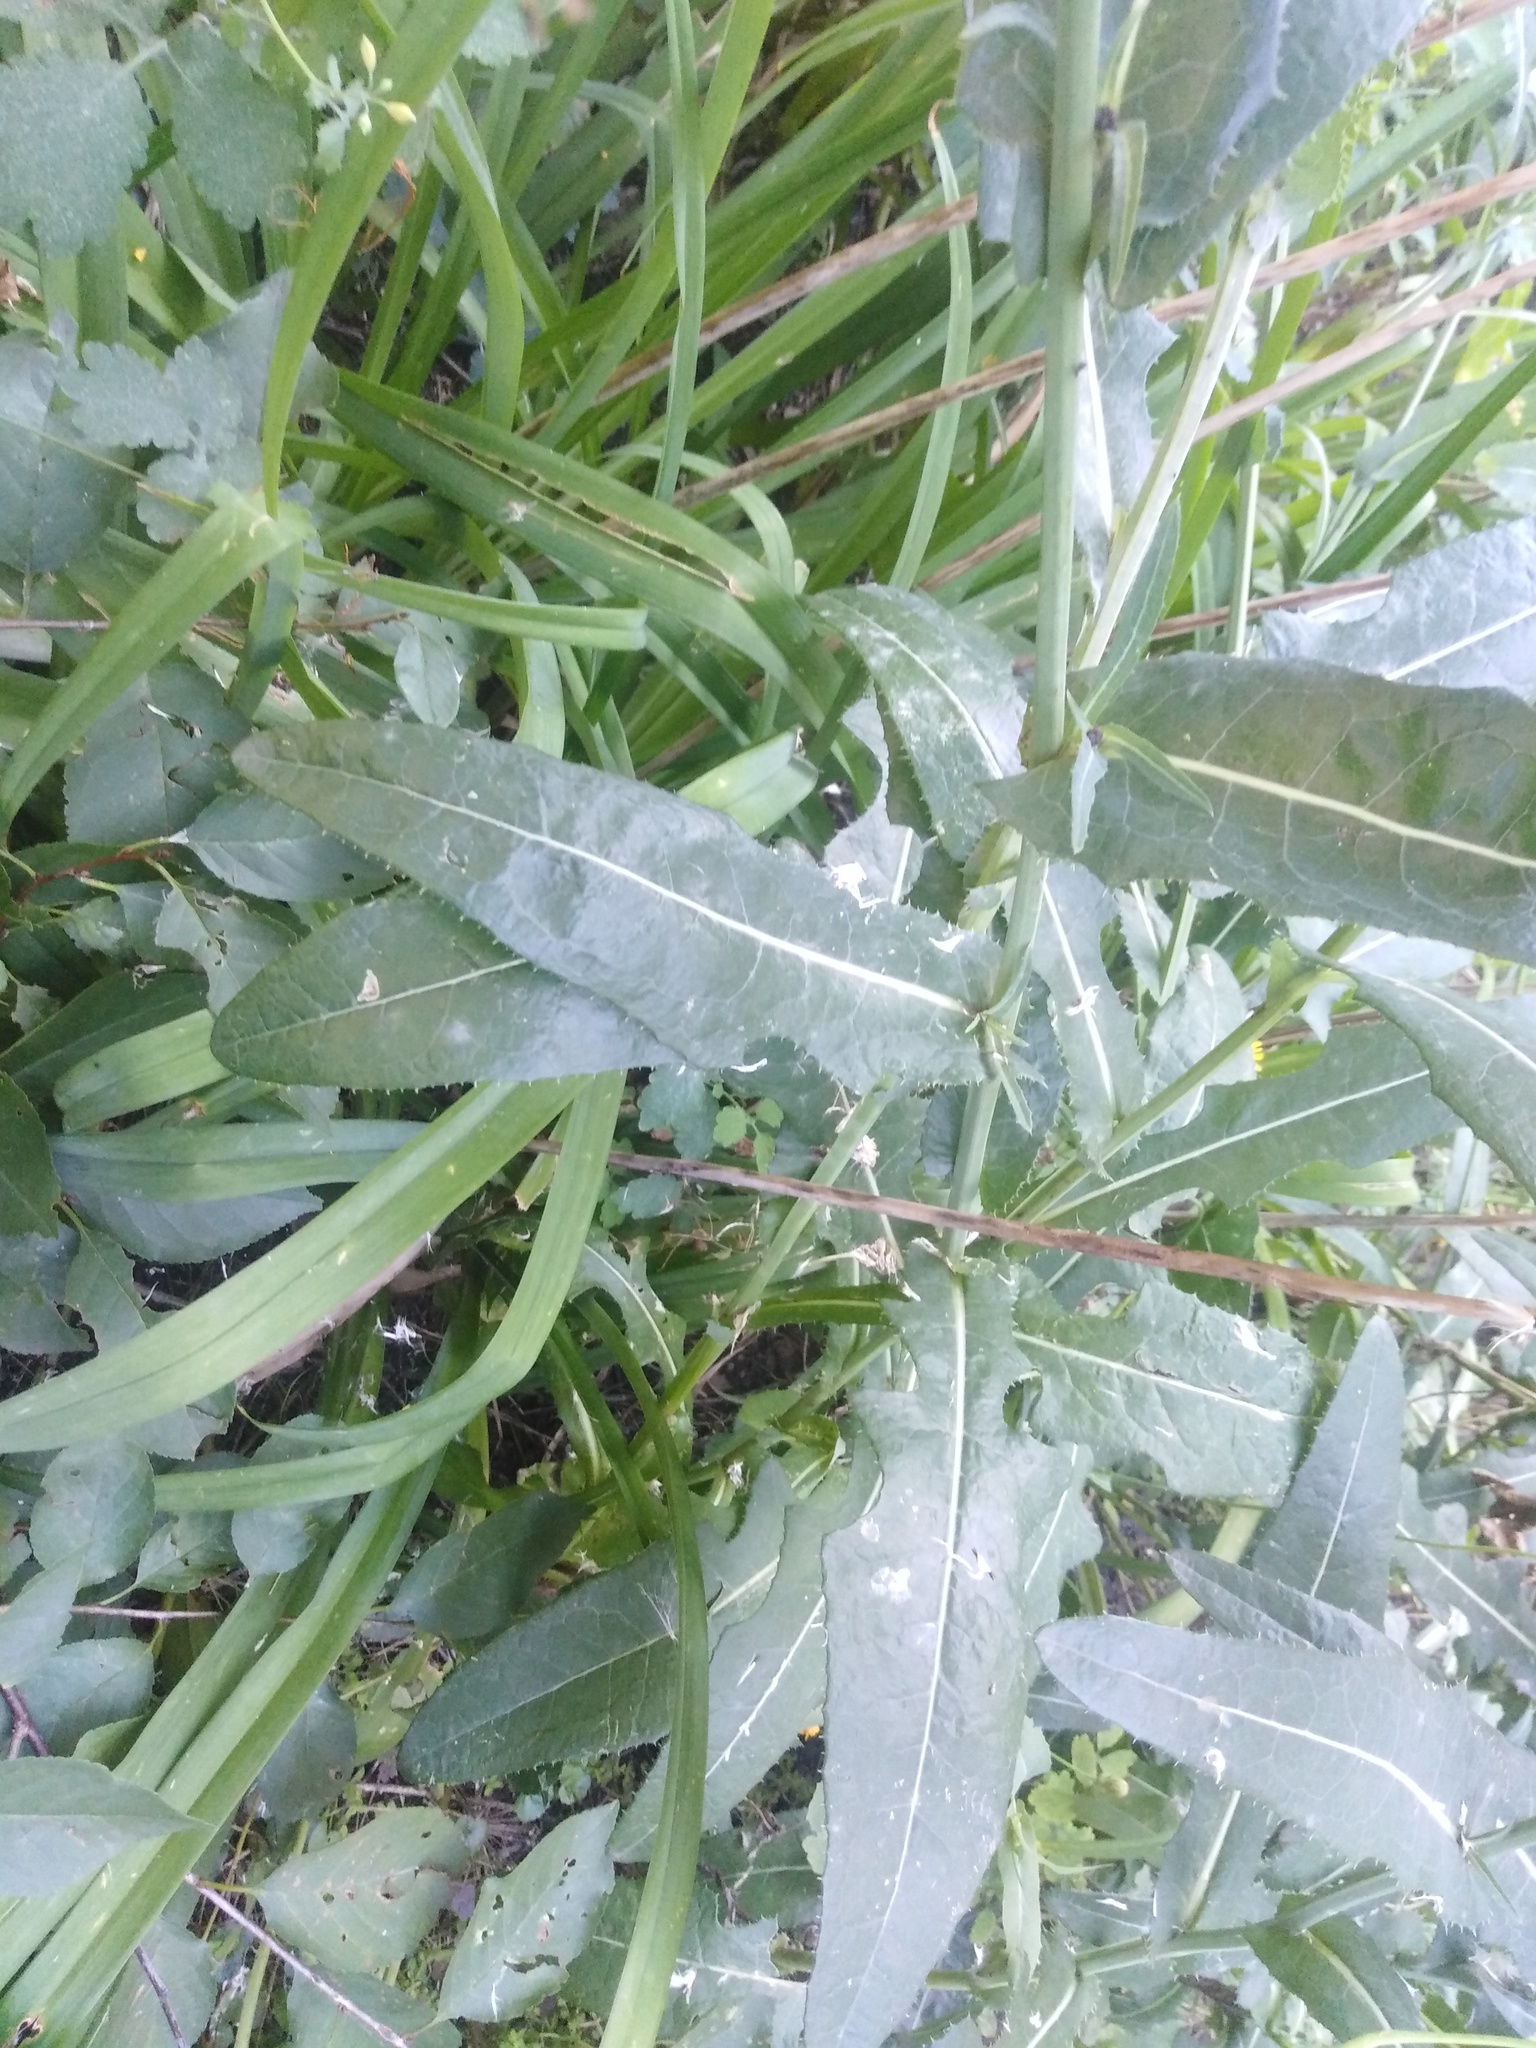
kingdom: Plantae
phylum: Tracheophyta
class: Magnoliopsida
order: Asterales
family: Asteraceae
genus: Sonchus
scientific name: Sonchus arvensis
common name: Perennial sow-thistle
